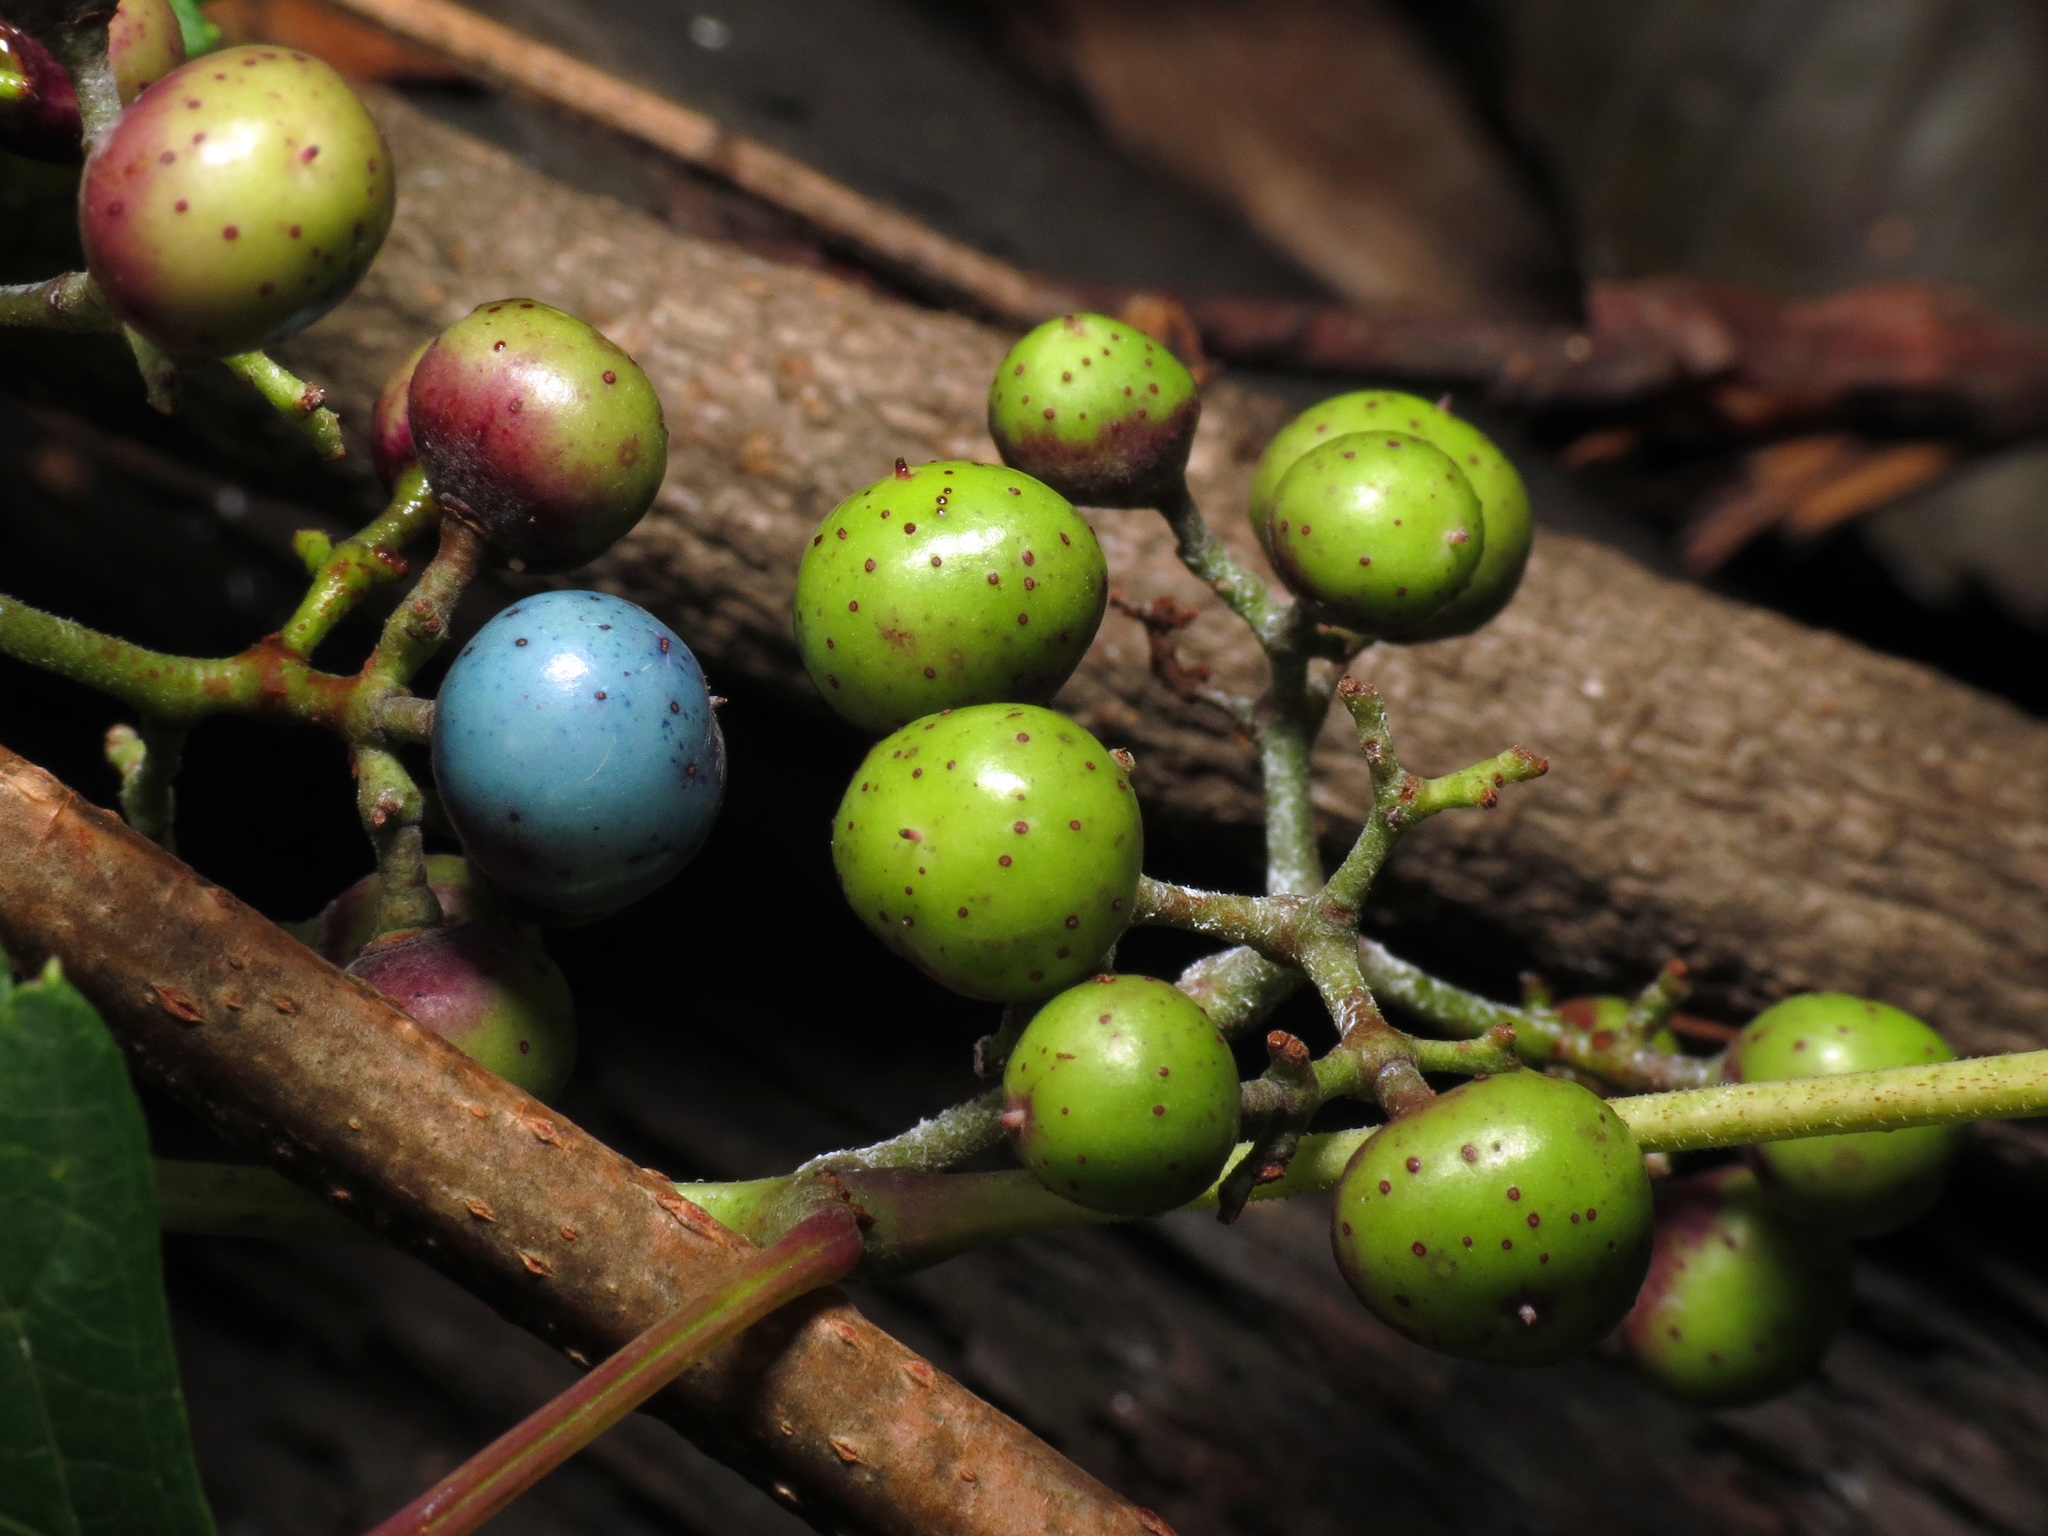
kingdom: Plantae
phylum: Tracheophyta
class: Magnoliopsida
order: Vitales
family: Vitaceae
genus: Ampelopsis
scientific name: Ampelopsis glandulosa
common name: Amur peppervine
